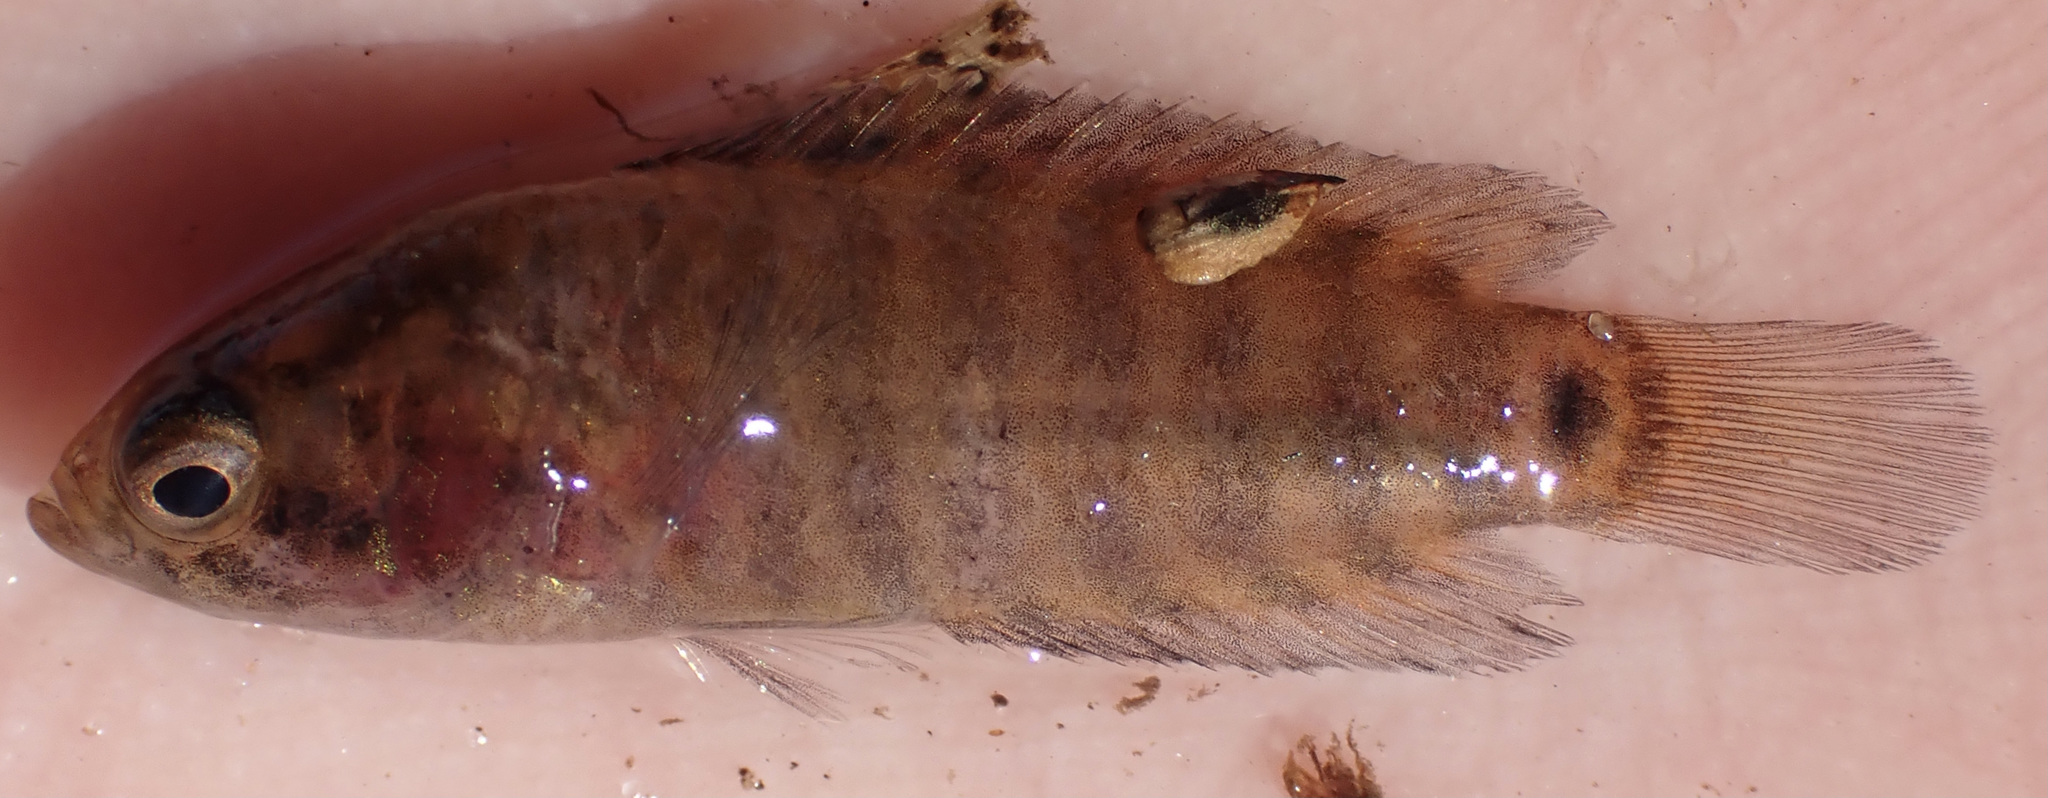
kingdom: Animalia
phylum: Chordata
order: Perciformes
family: Anabantidae
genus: Microctenopoma
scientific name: Microctenopoma intermedium
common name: Blackspot climbing perch
